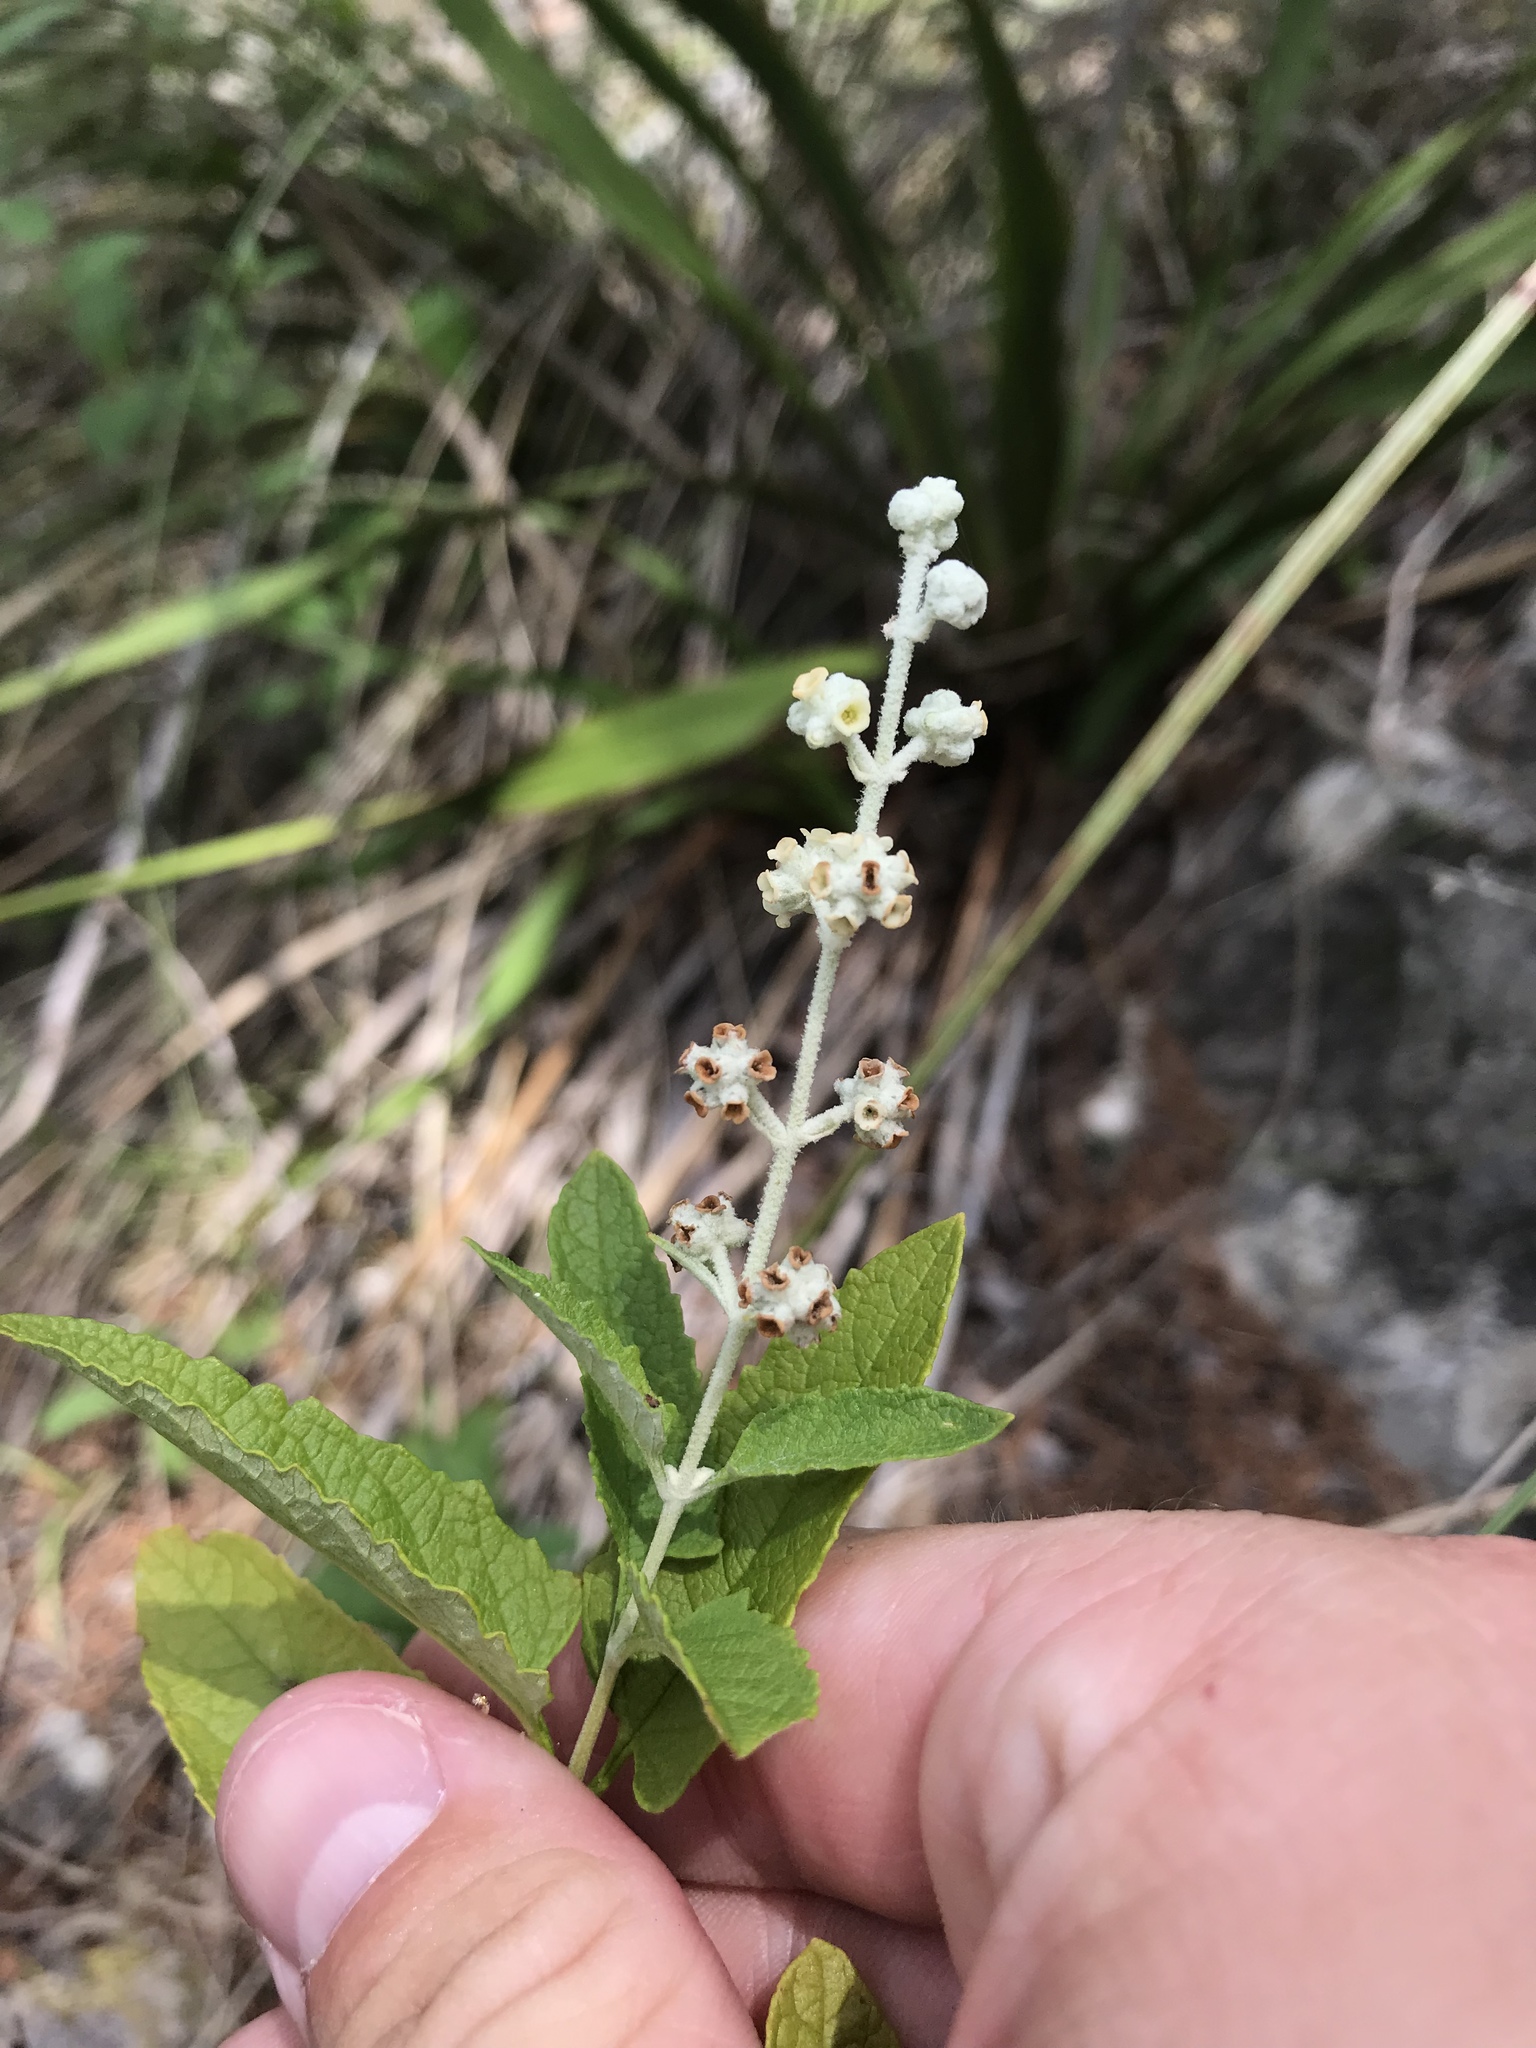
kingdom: Plantae
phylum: Tracheophyta
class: Magnoliopsida
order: Lamiales
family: Scrophulariaceae
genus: Buddleja
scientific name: Buddleja racemosa
